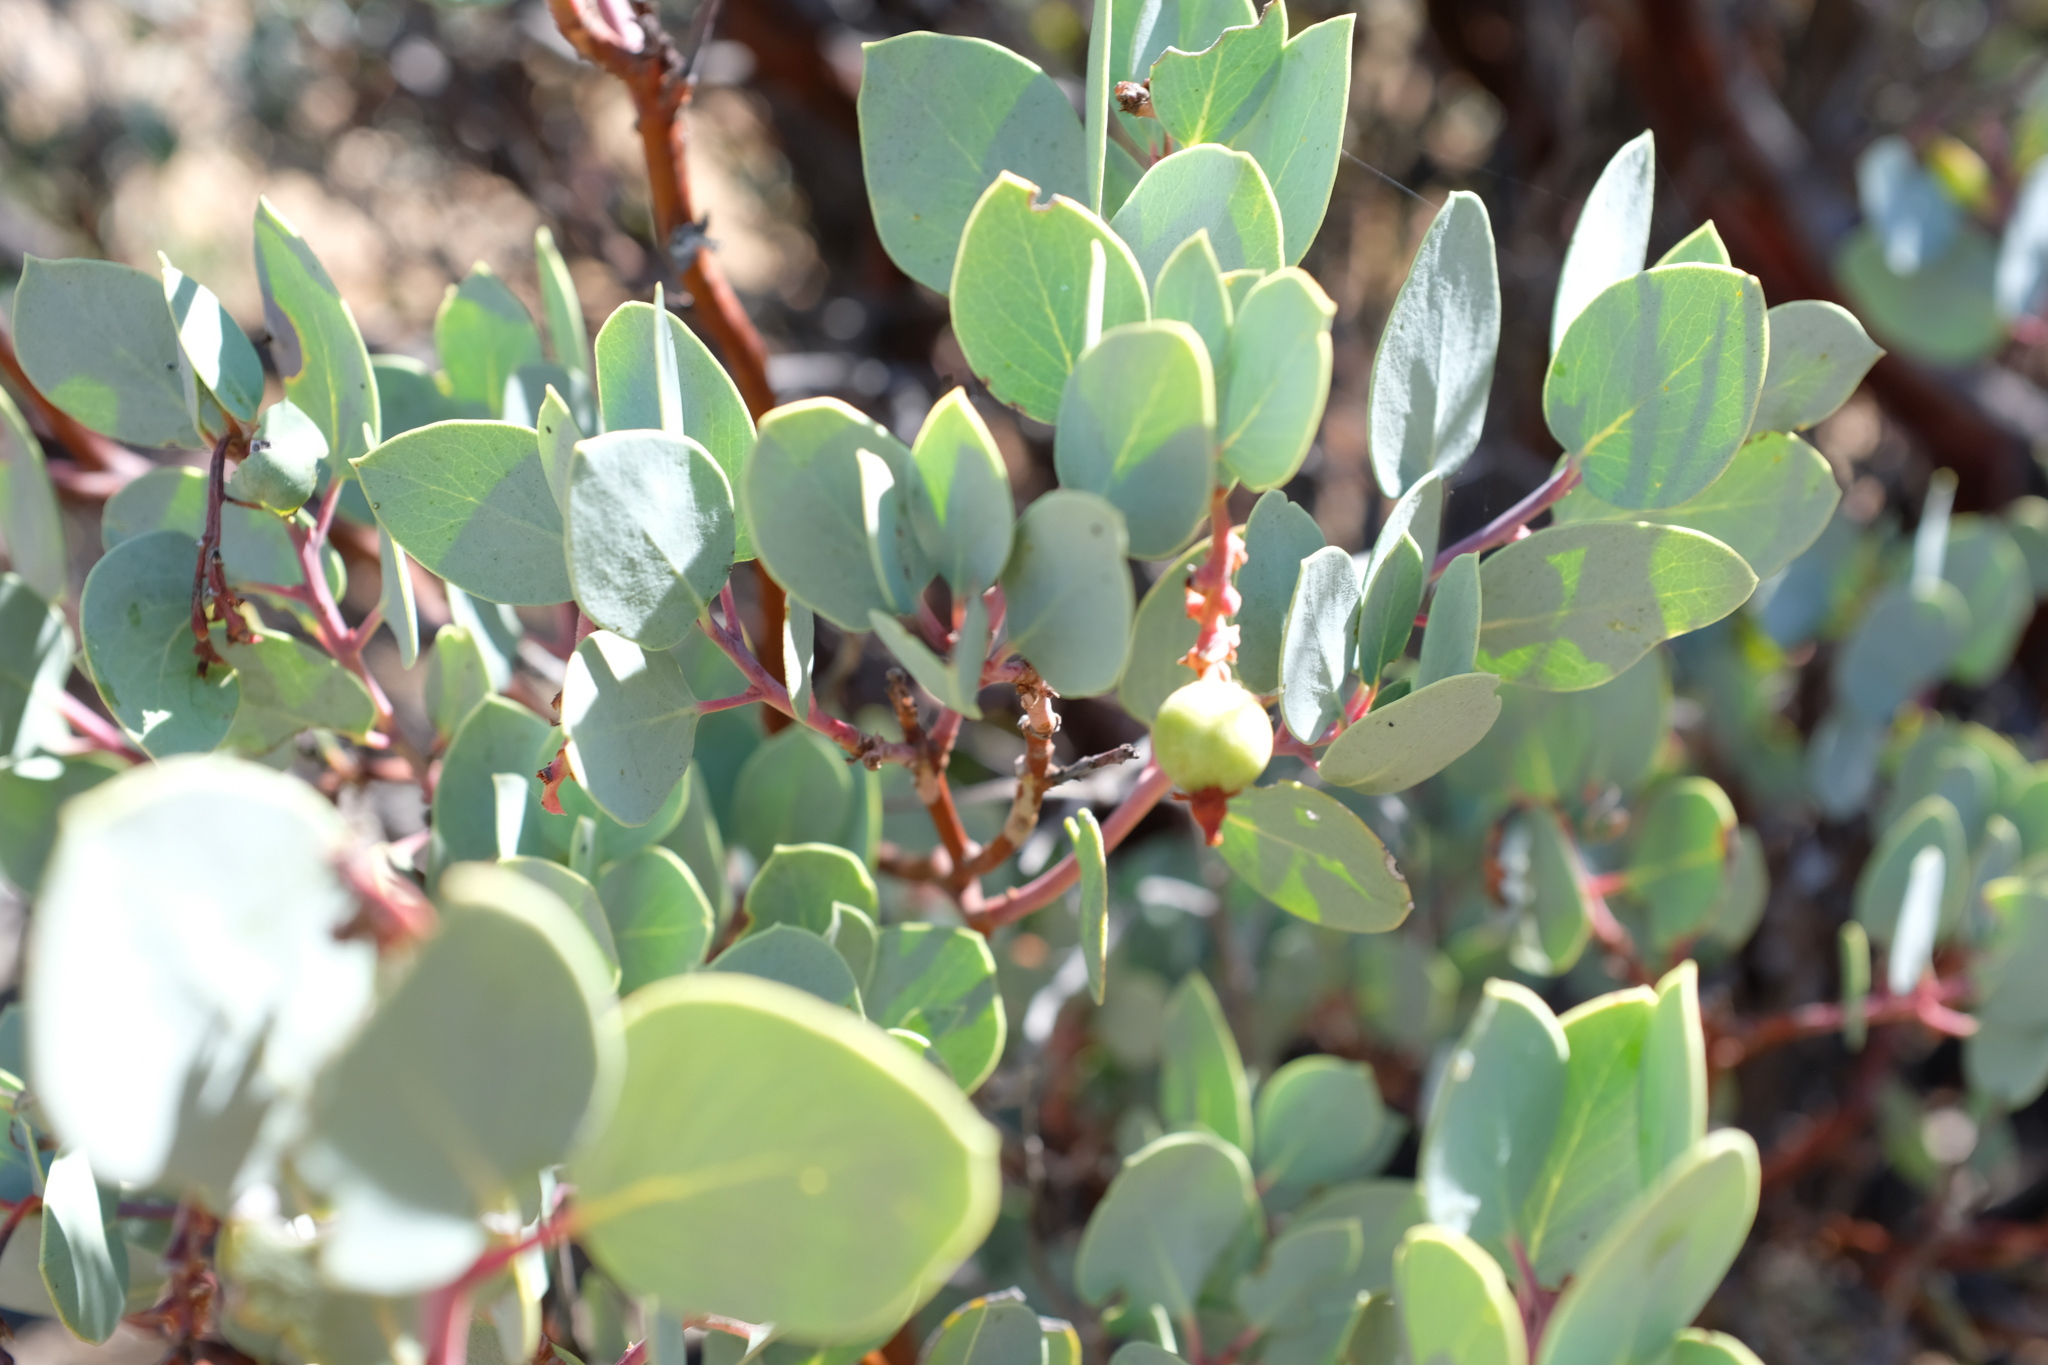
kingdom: Plantae
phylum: Tracheophyta
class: Magnoliopsida
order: Ericales
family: Ericaceae
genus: Arctostaphylos
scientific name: Arctostaphylos glauca
